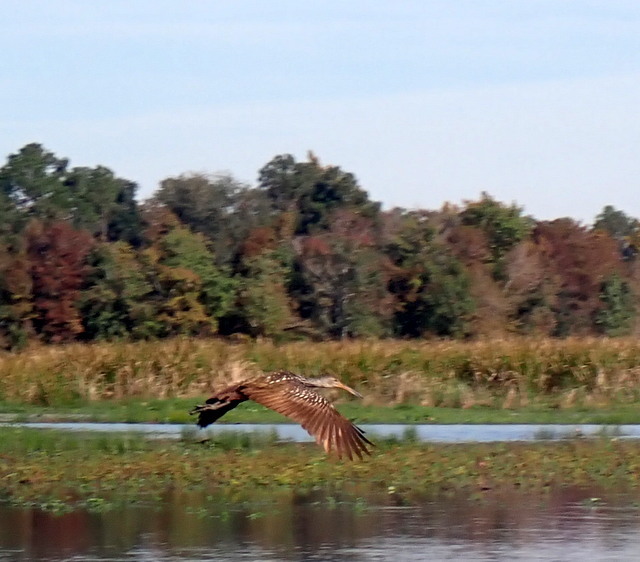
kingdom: Animalia
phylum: Chordata
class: Aves
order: Gruiformes
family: Aramidae
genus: Aramus
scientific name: Aramus guarauna
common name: Limpkin
